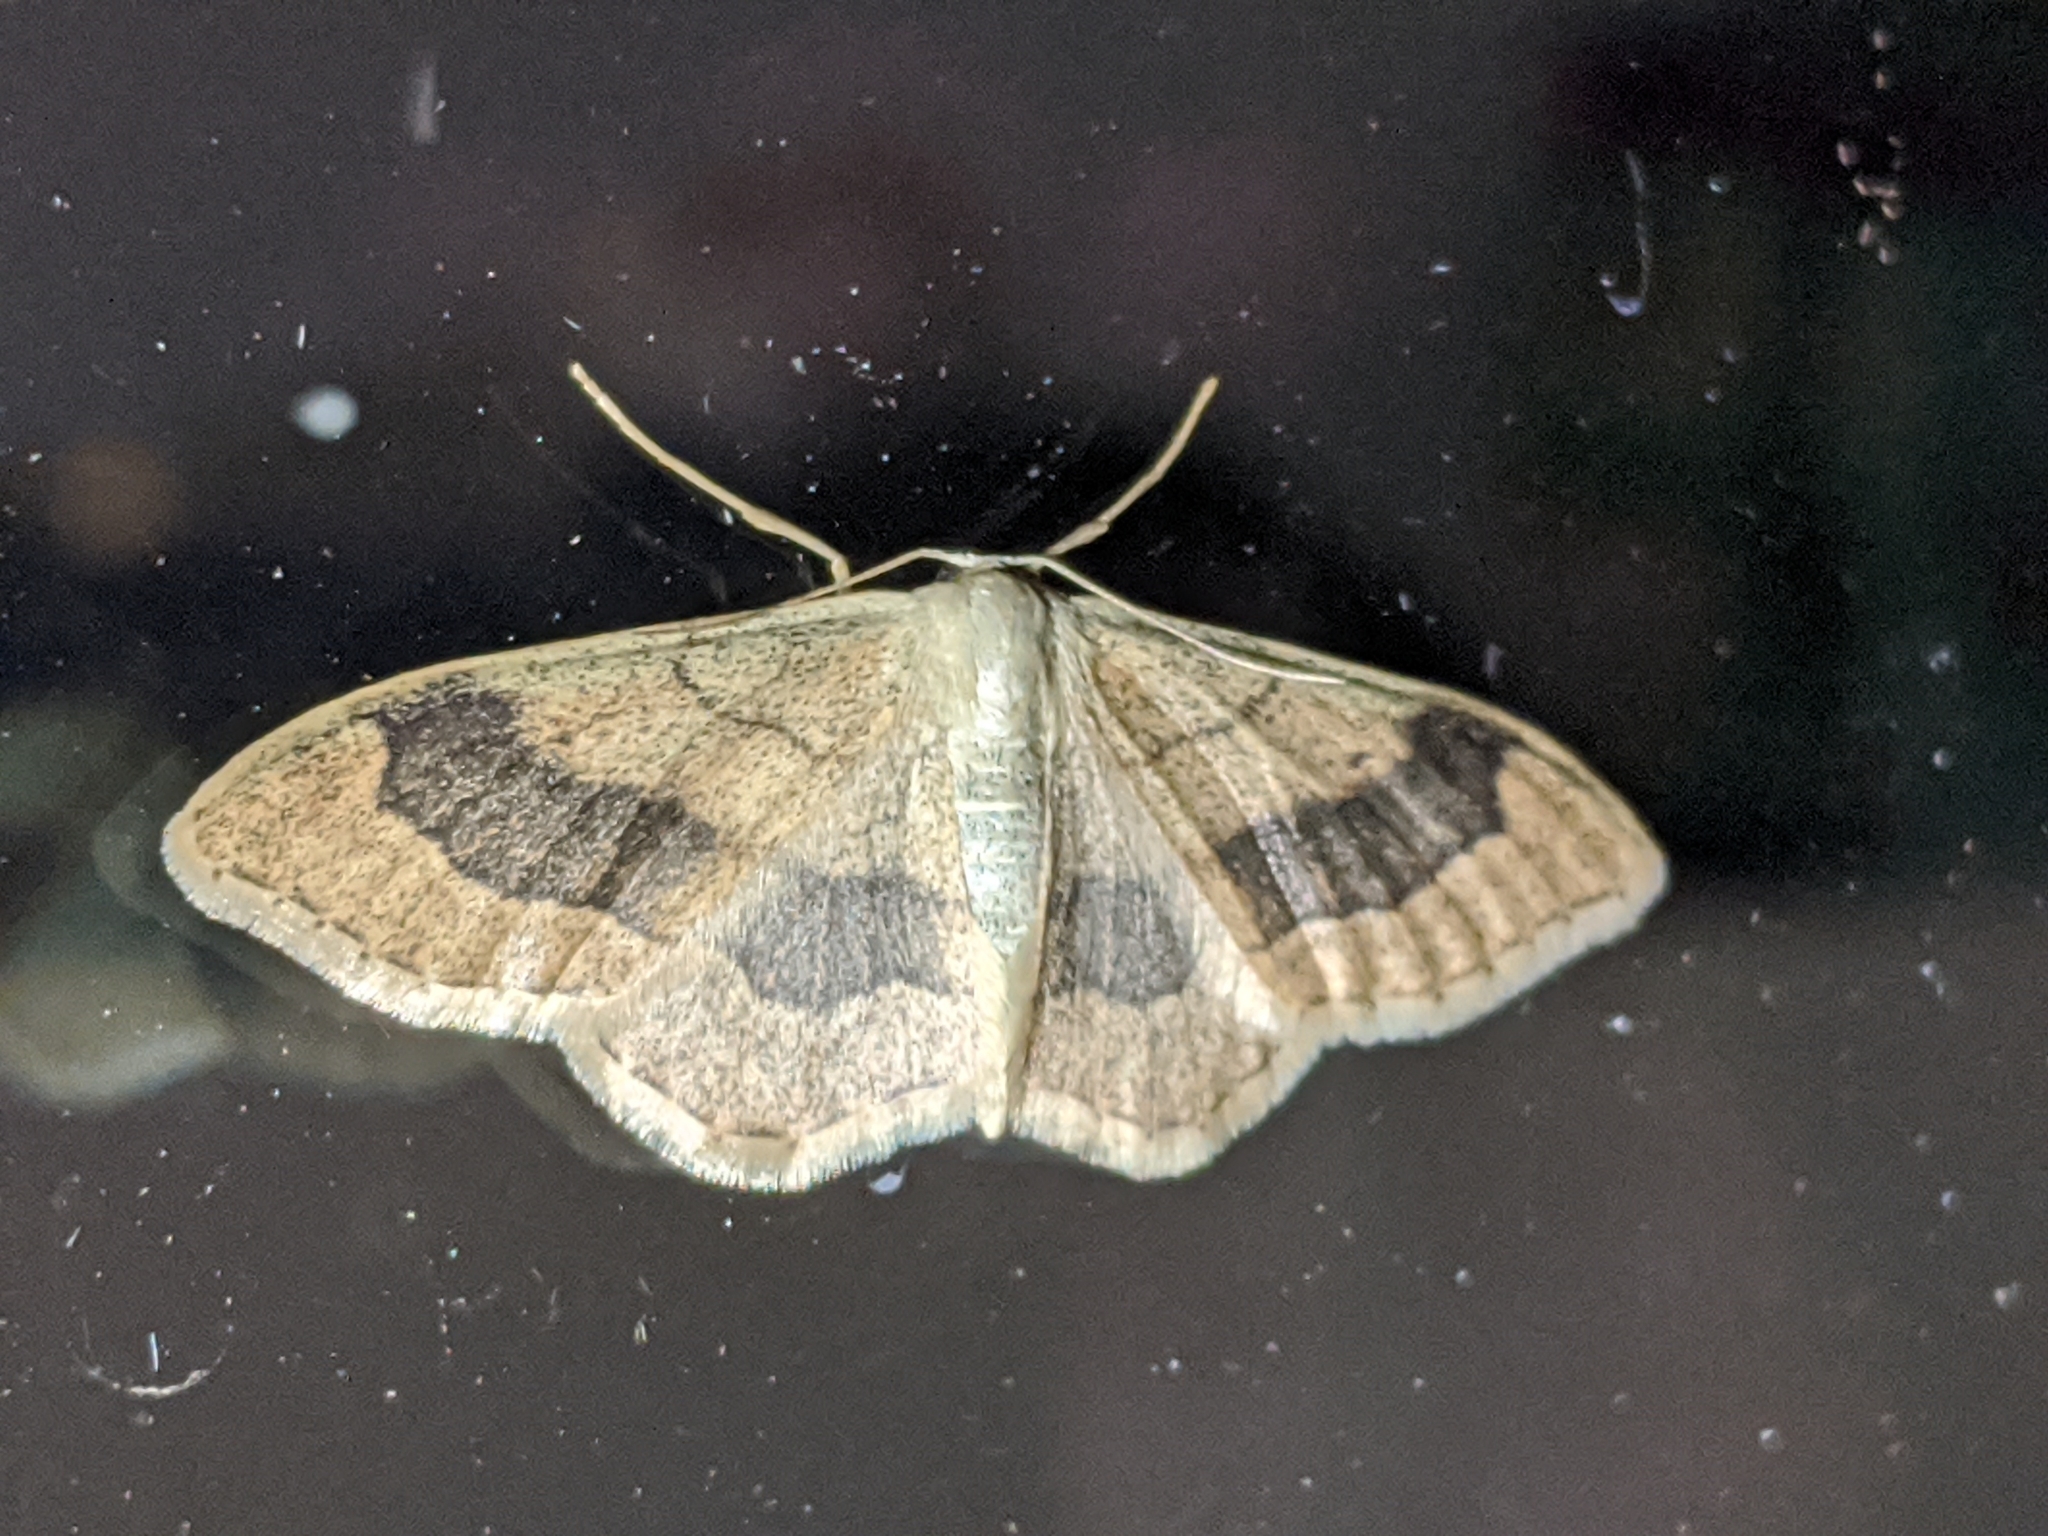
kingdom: Animalia
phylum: Arthropoda
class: Insecta
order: Lepidoptera
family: Geometridae
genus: Idaea
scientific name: Idaea aversata
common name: Riband wave
